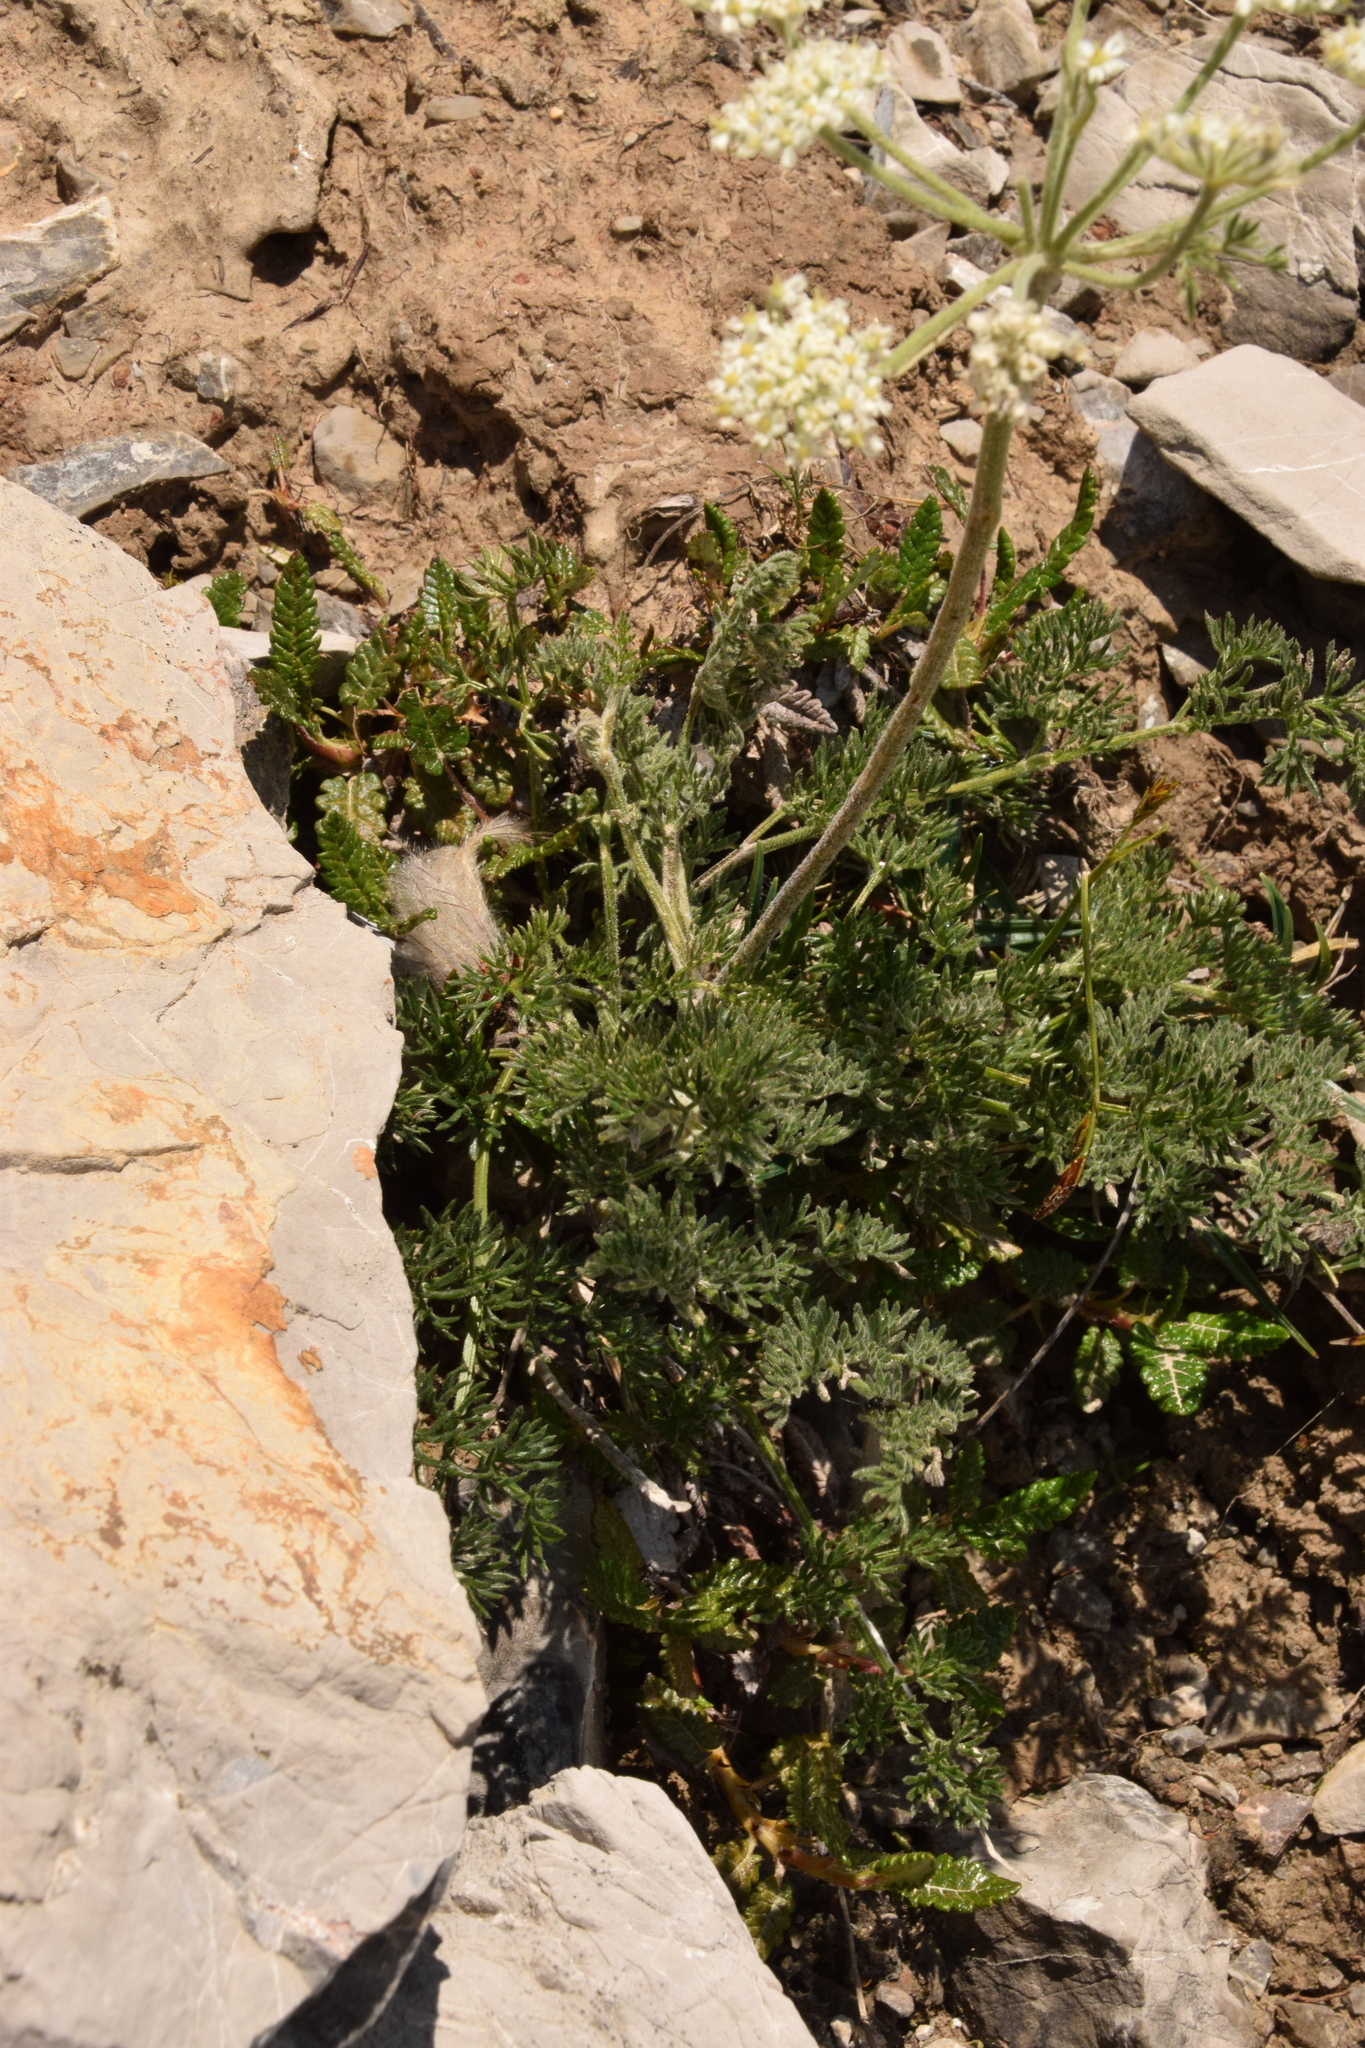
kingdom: Plantae
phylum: Tracheophyta
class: Magnoliopsida
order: Apiales
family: Apiaceae
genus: Athamanta
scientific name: Athamanta cretensis
